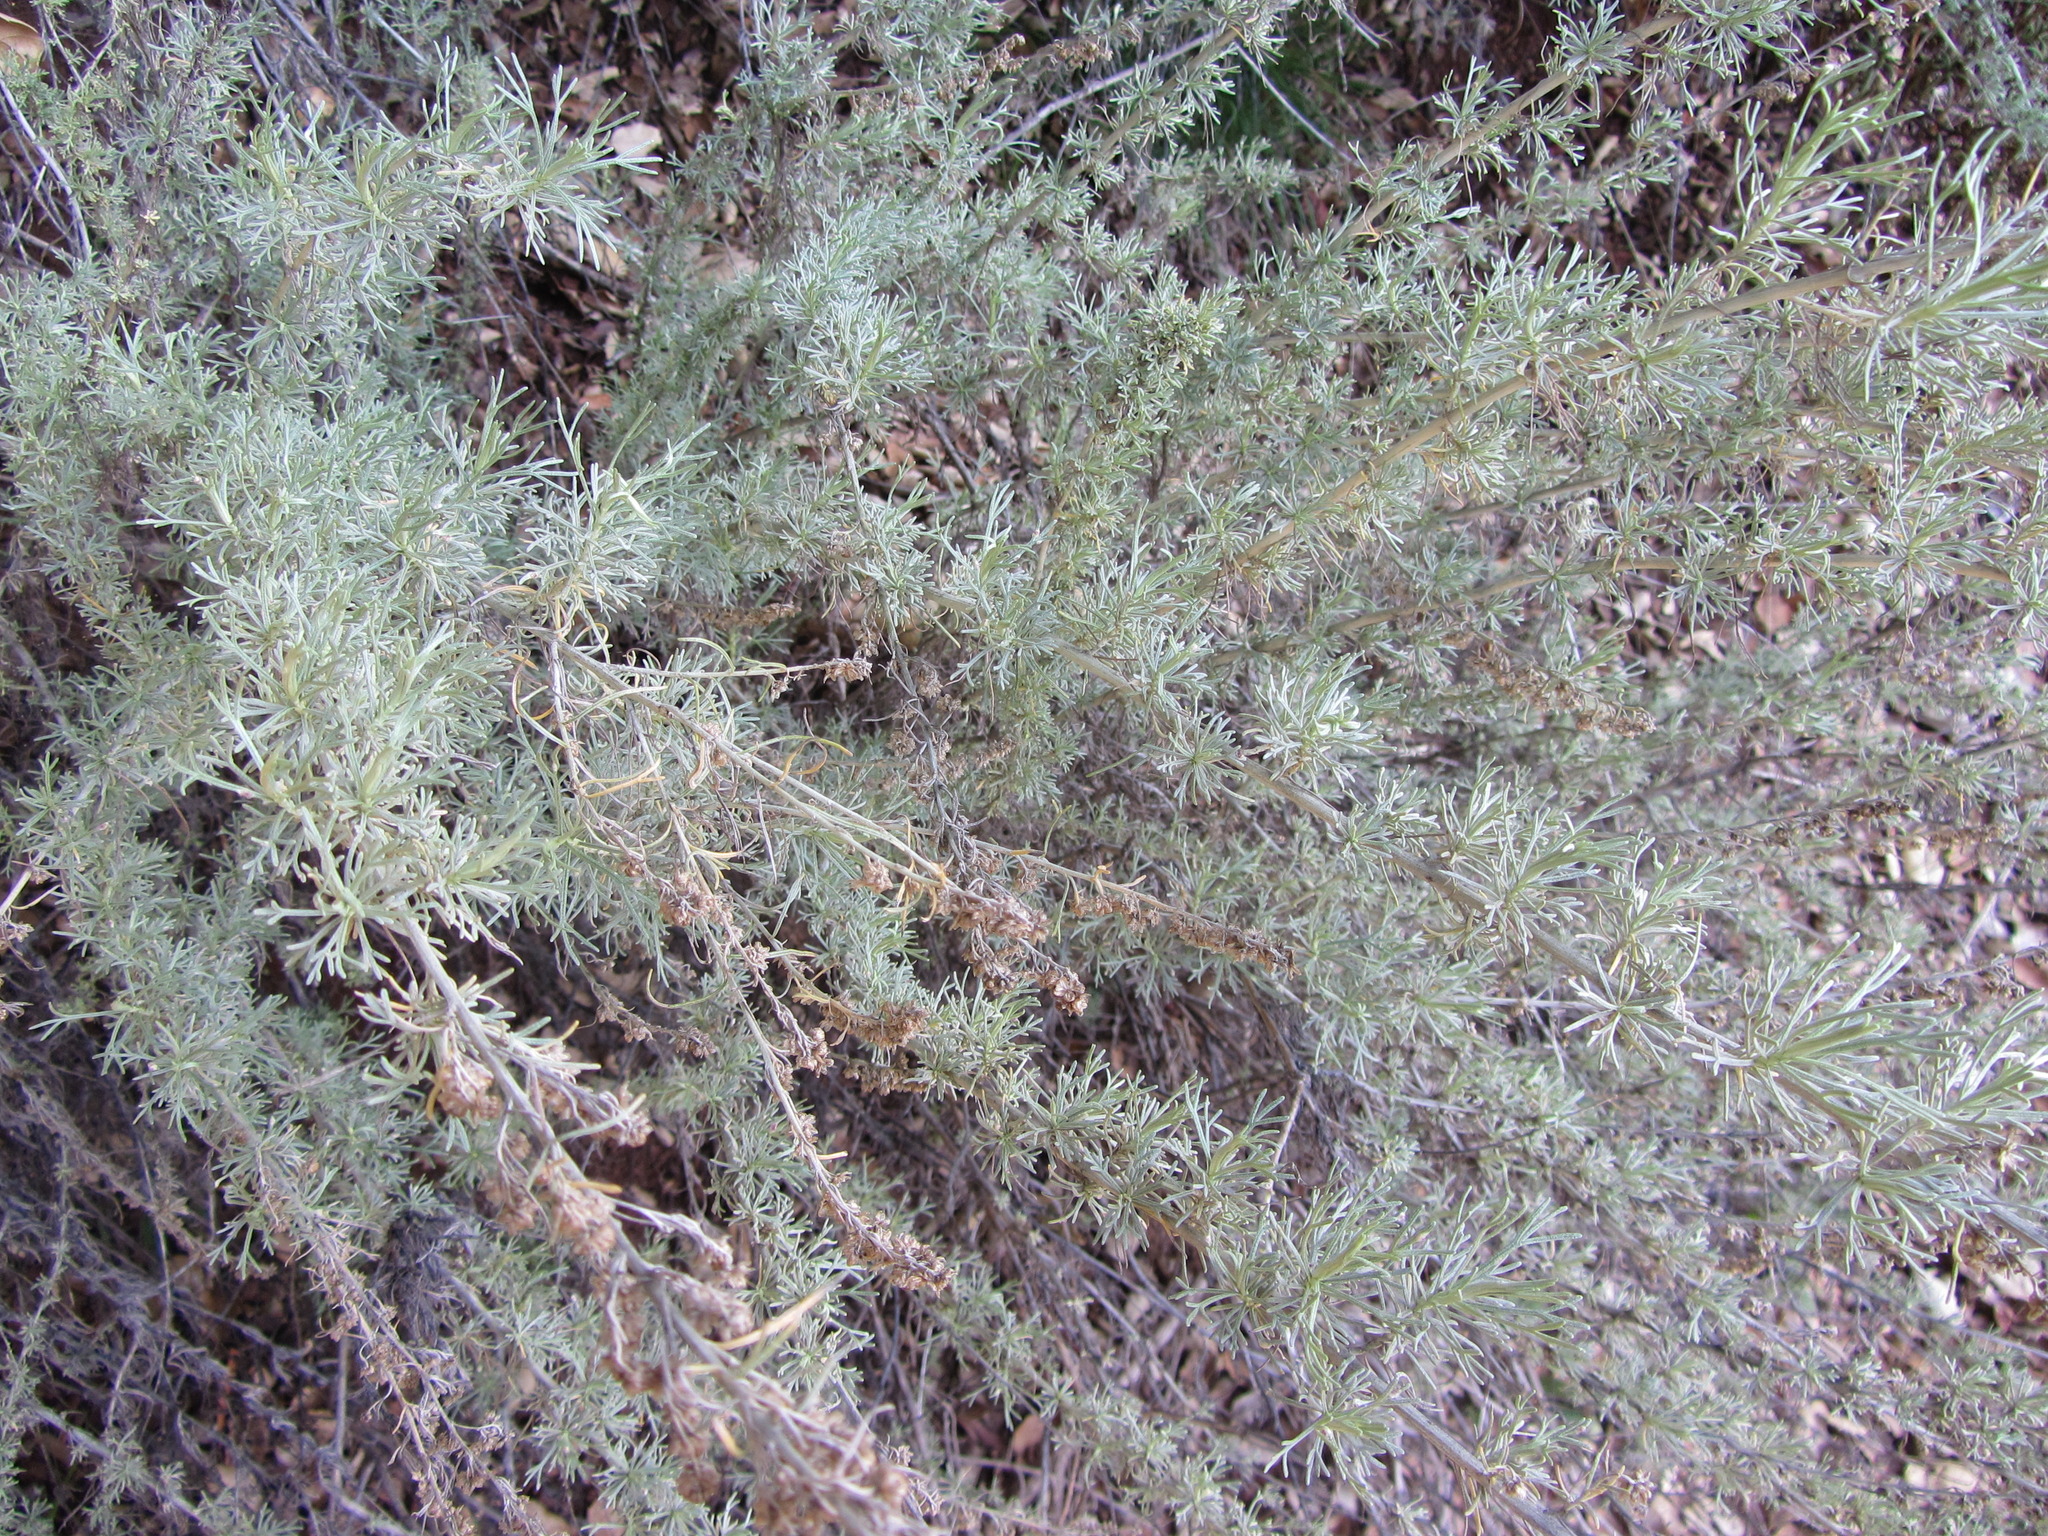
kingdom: Plantae
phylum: Tracheophyta
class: Magnoliopsida
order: Asterales
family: Asteraceae
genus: Artemisia
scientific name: Artemisia californica
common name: California sagebrush
